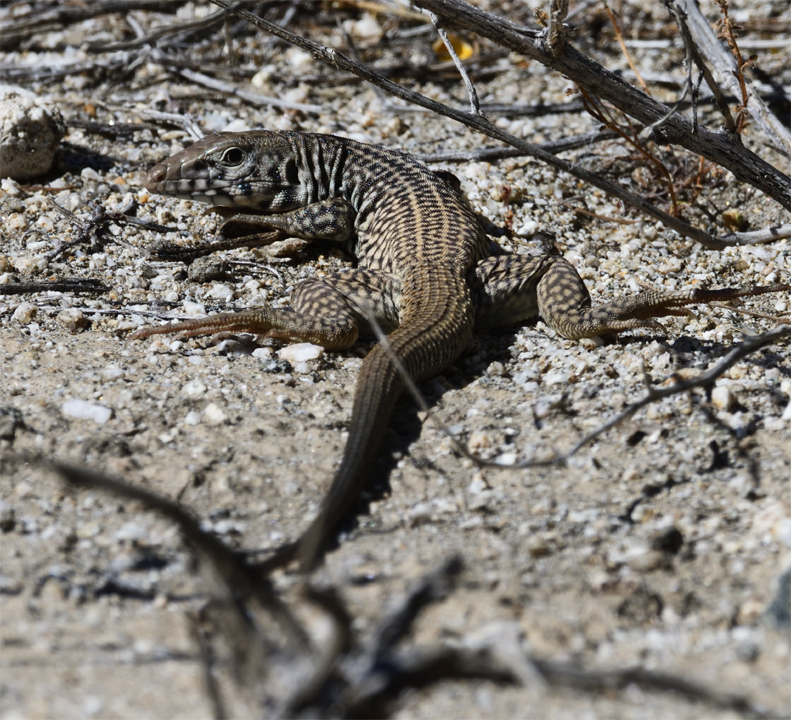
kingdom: Animalia
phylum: Chordata
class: Squamata
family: Teiidae
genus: Aspidoscelis
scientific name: Aspidoscelis tigris
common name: Tiger whiptail
